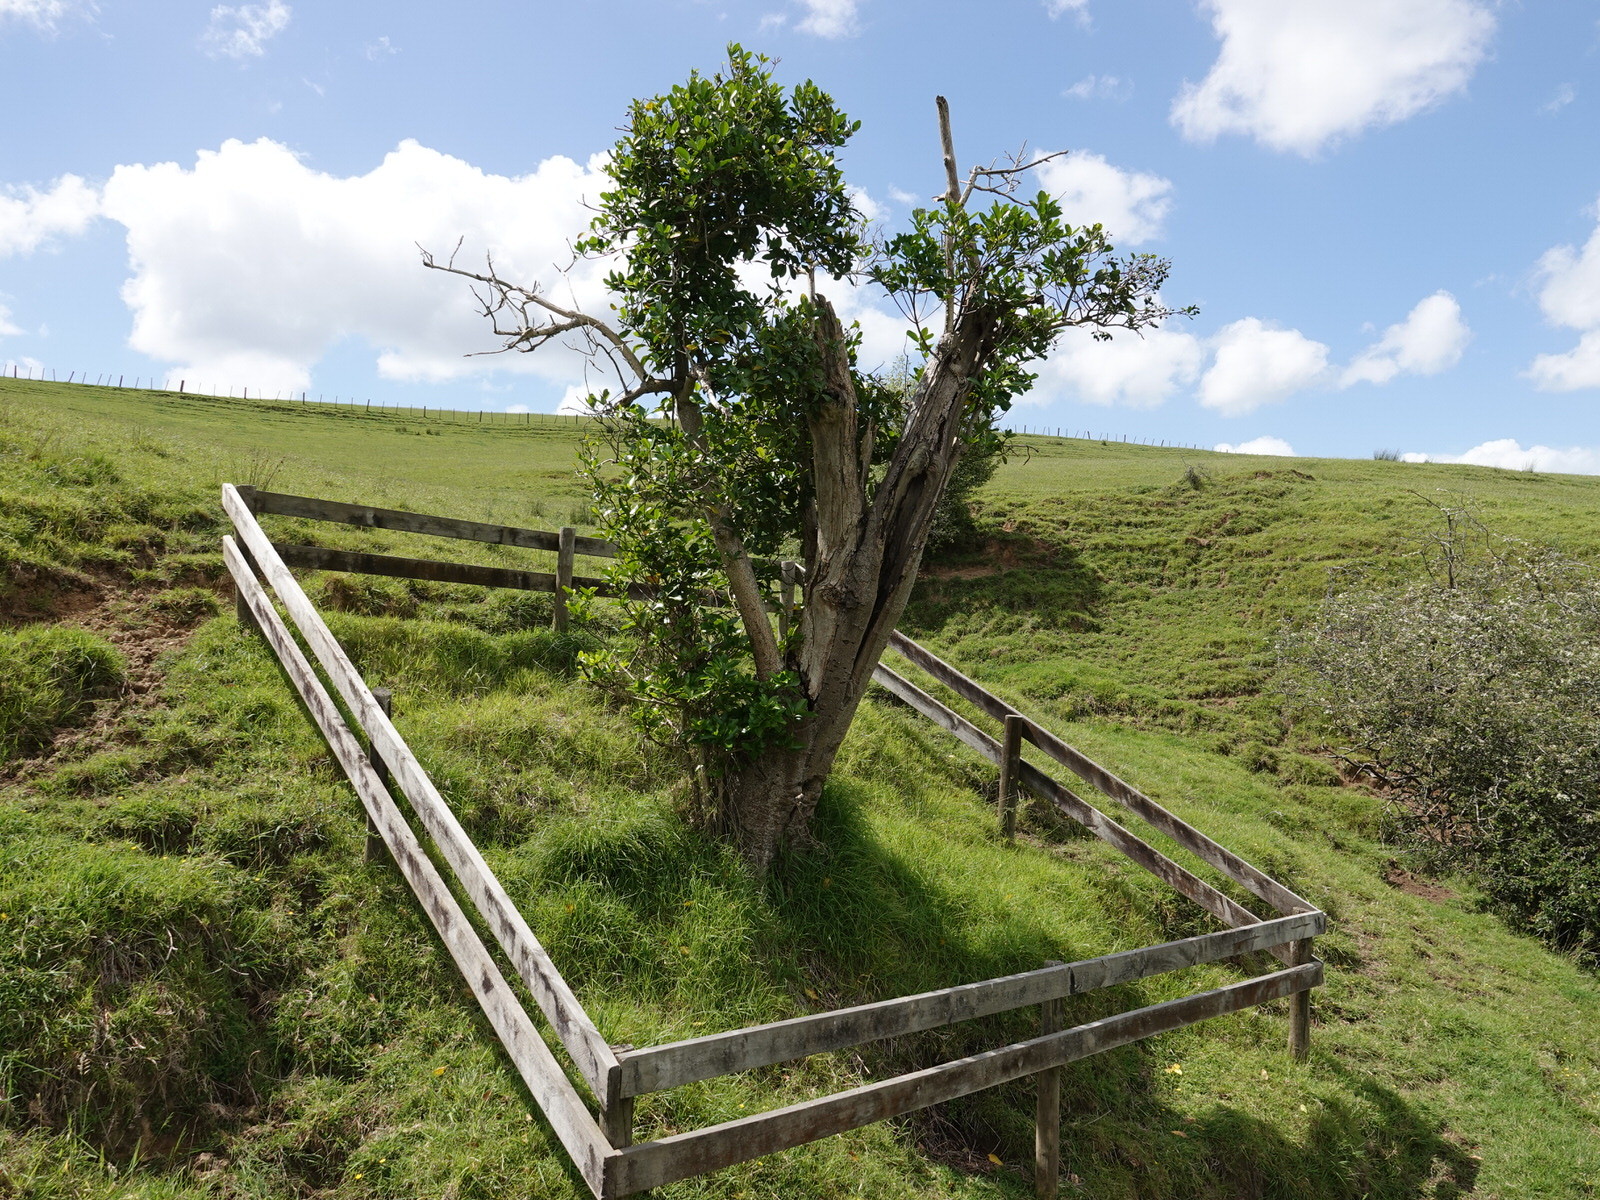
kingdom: Plantae
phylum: Tracheophyta
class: Magnoliopsida
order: Cucurbitales
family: Corynocarpaceae
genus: Corynocarpus
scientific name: Corynocarpus laevigatus
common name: New zealand laurel
